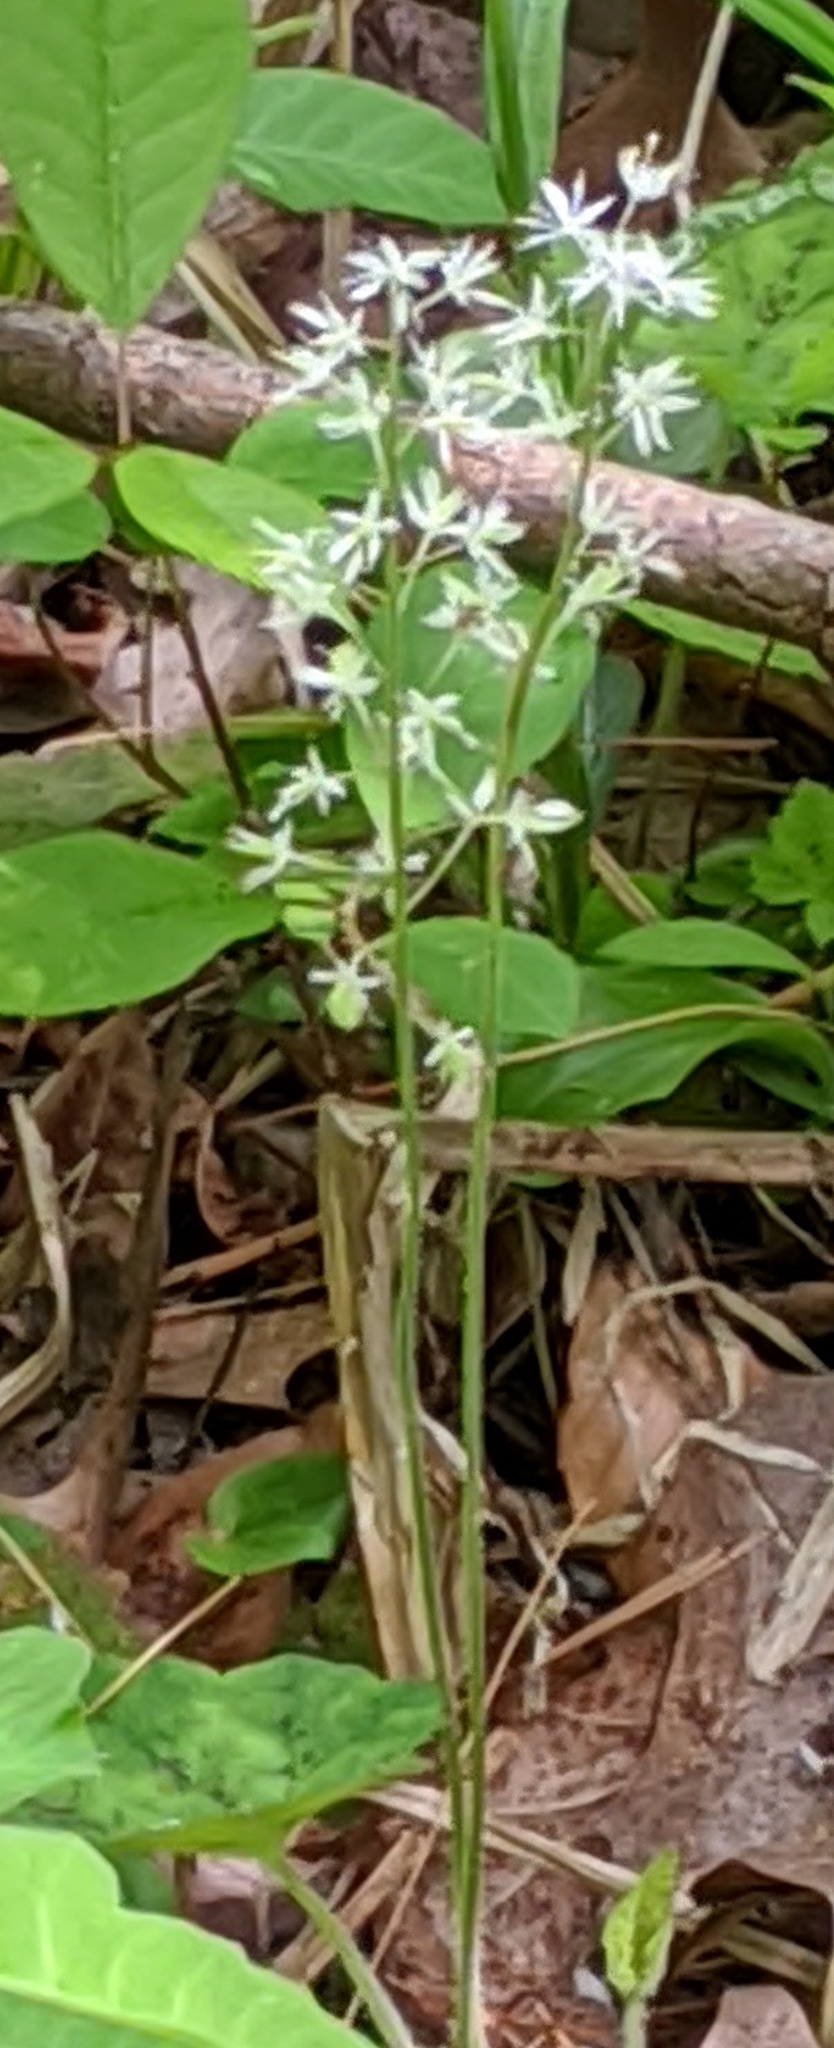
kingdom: Plantae
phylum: Tracheophyta
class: Magnoliopsida
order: Saxifragales
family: Saxifragaceae
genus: Tiarella
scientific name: Tiarella stolonifera
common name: Stoloniferous foamflower
